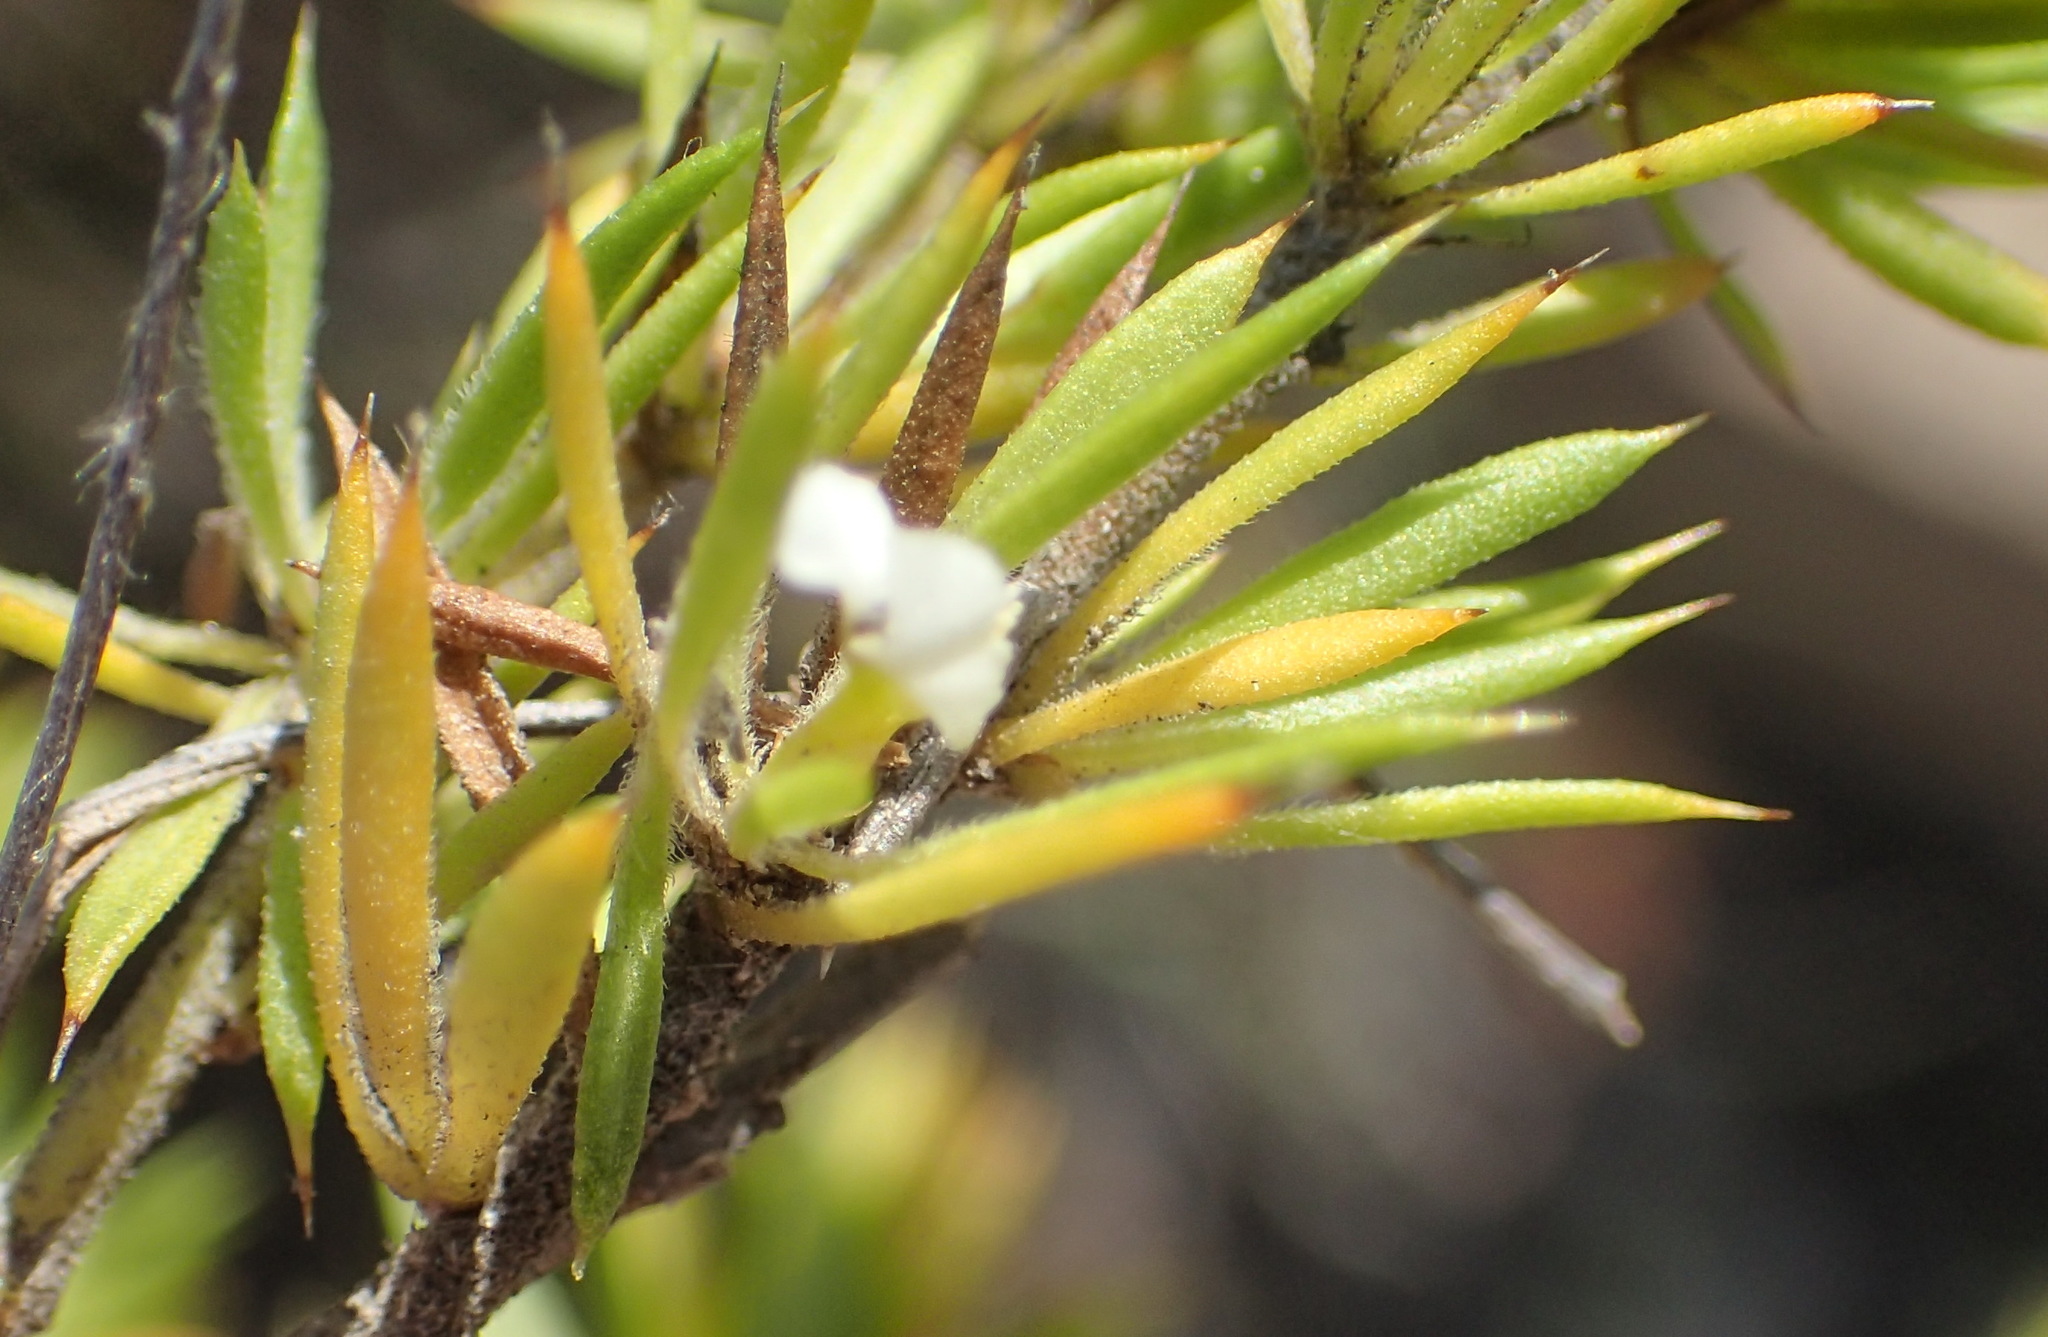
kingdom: Plantae
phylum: Tracheophyta
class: Magnoliopsida
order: Fabales
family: Polygalaceae
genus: Muraltia
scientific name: Muraltia ericifolia
